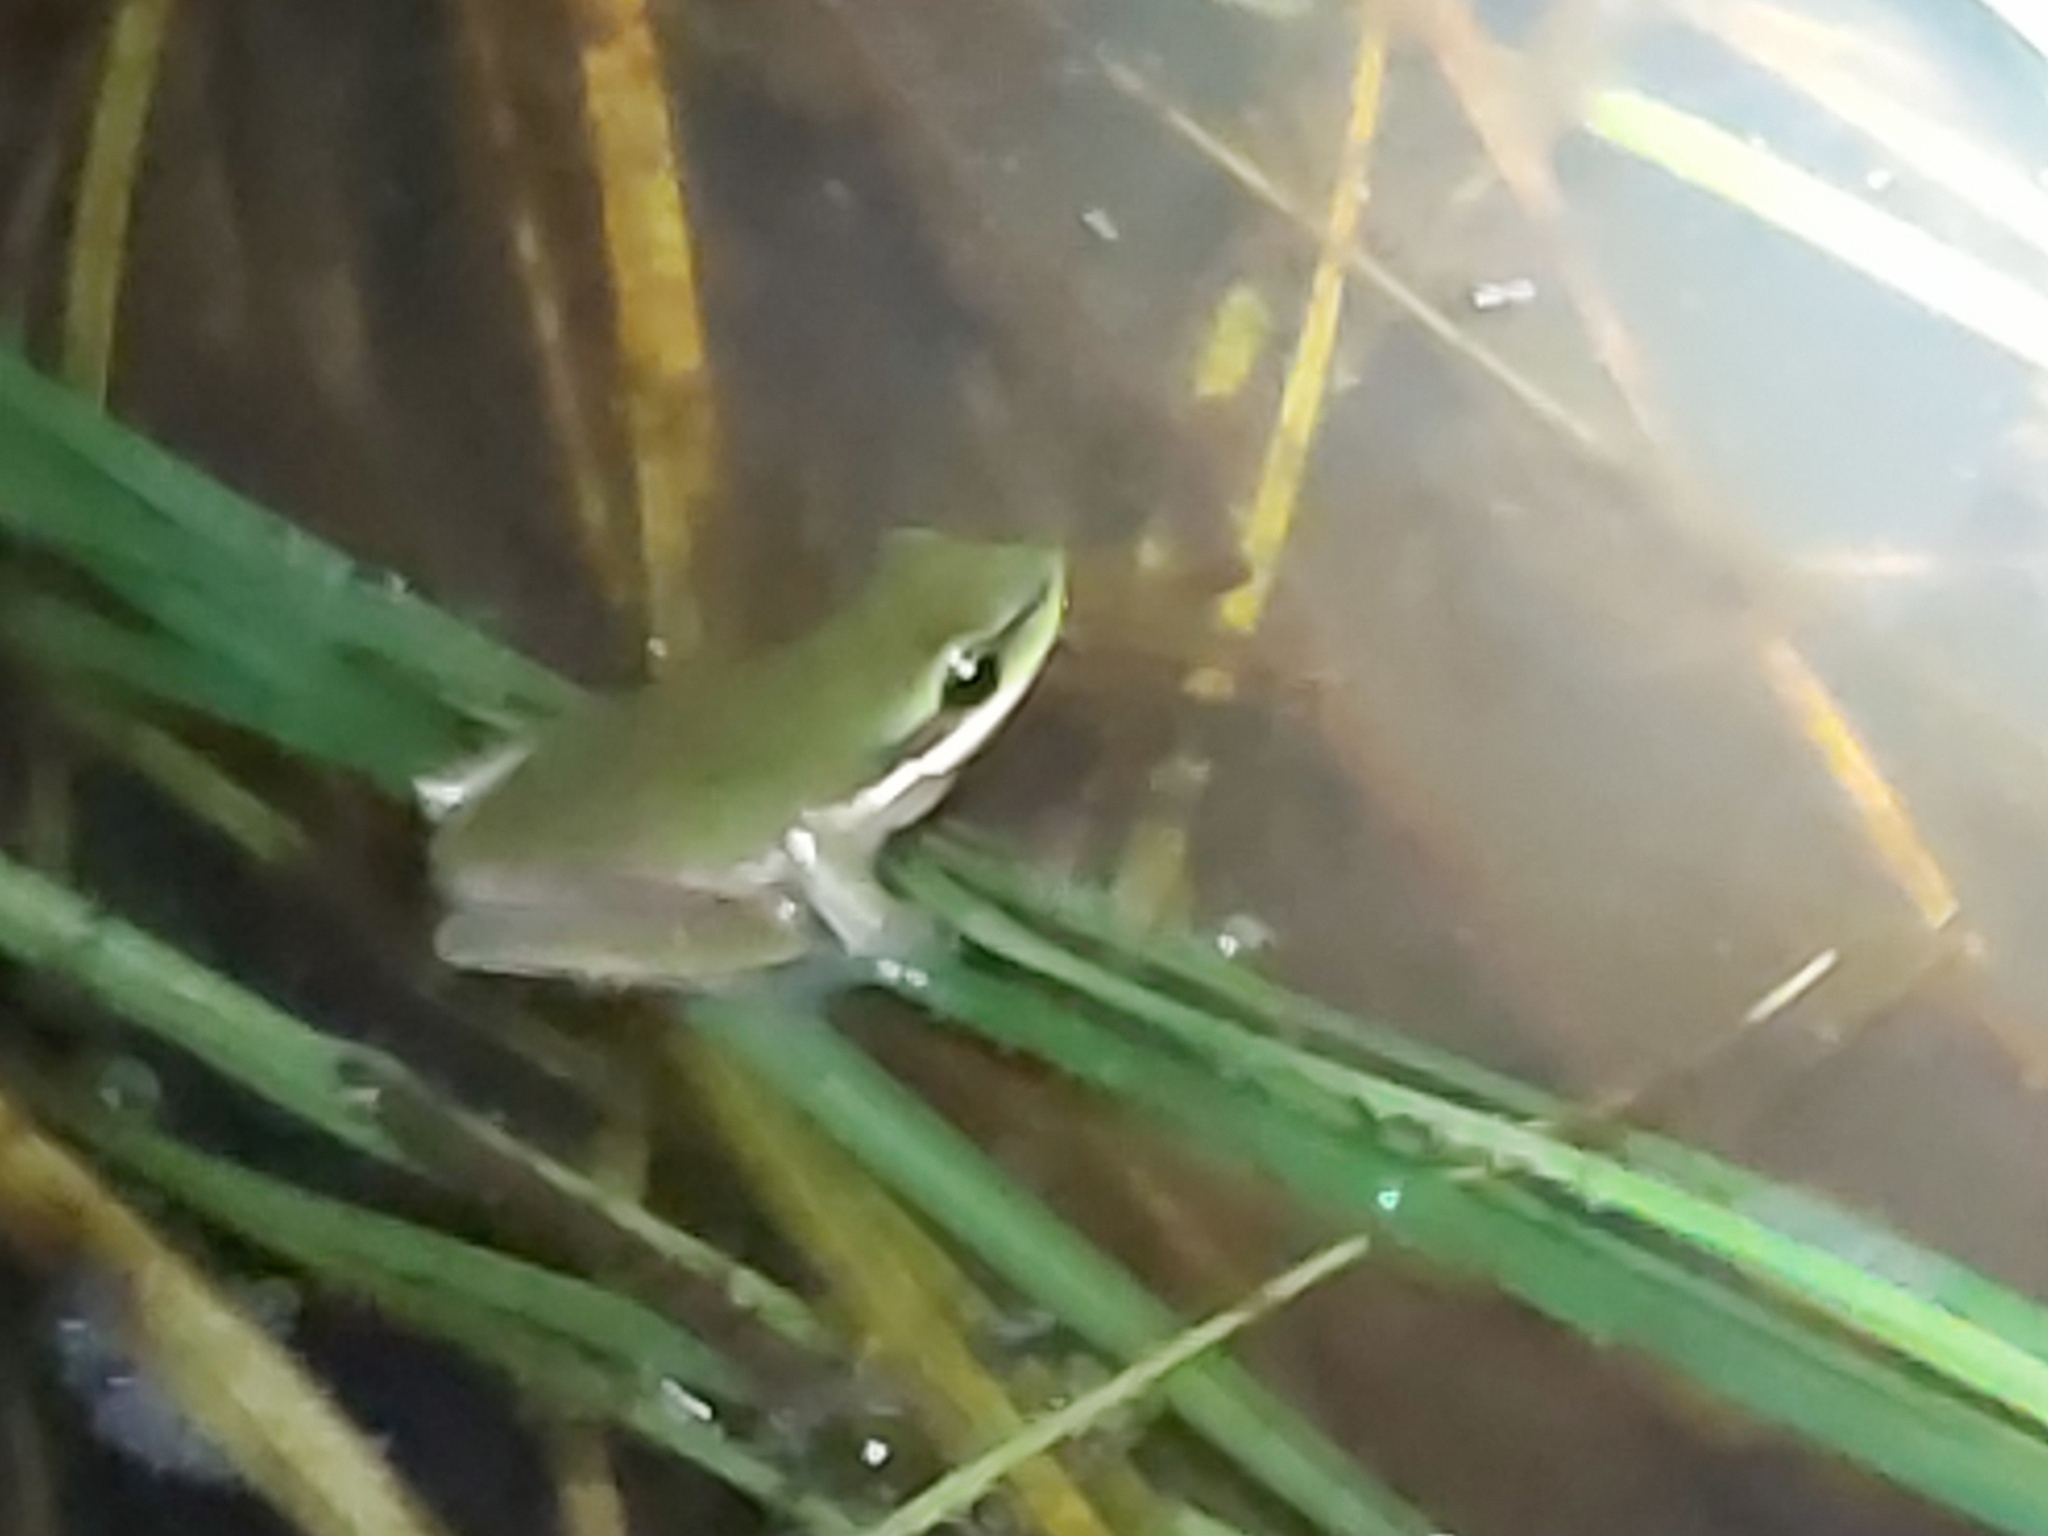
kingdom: Animalia
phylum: Chordata
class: Amphibia
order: Anura
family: Pelodryadidae
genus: Litoria
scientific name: Litoria fallax
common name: Eastern dwarf treefrog
